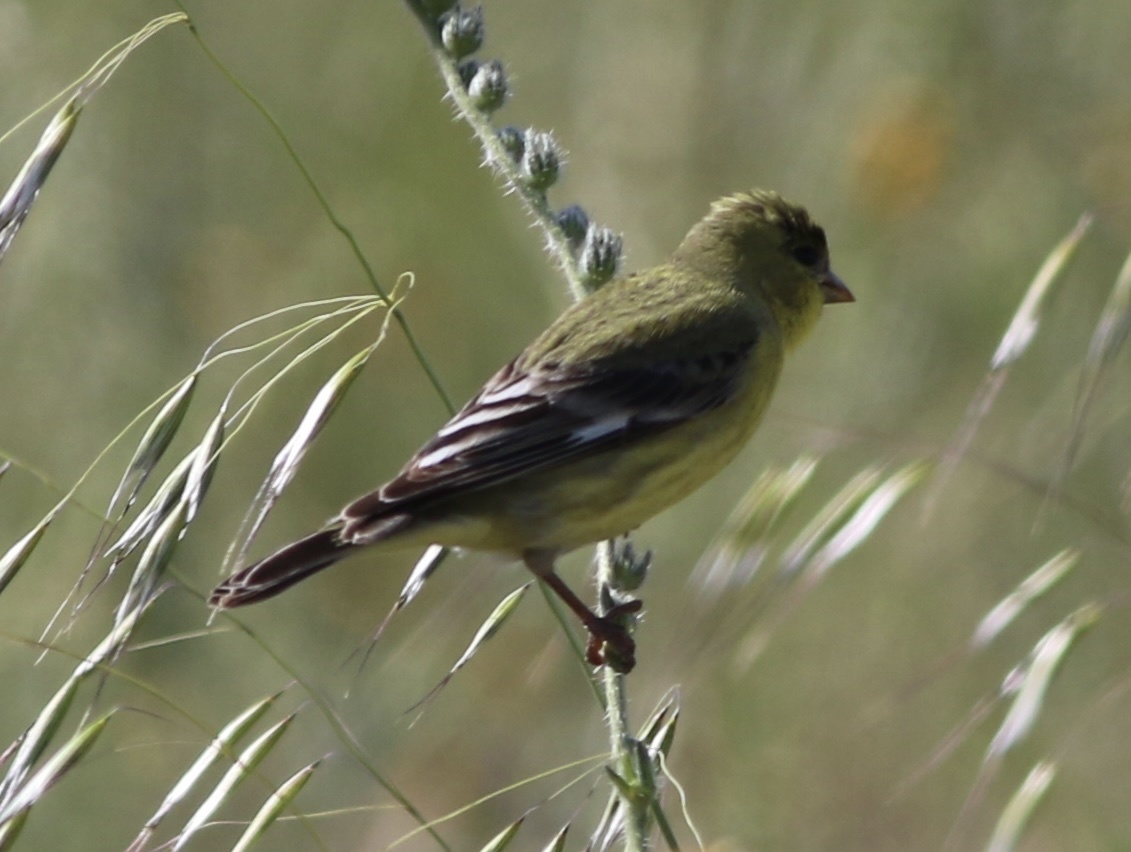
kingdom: Animalia
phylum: Chordata
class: Aves
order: Passeriformes
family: Fringillidae
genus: Spinus
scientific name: Spinus psaltria
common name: Lesser goldfinch
